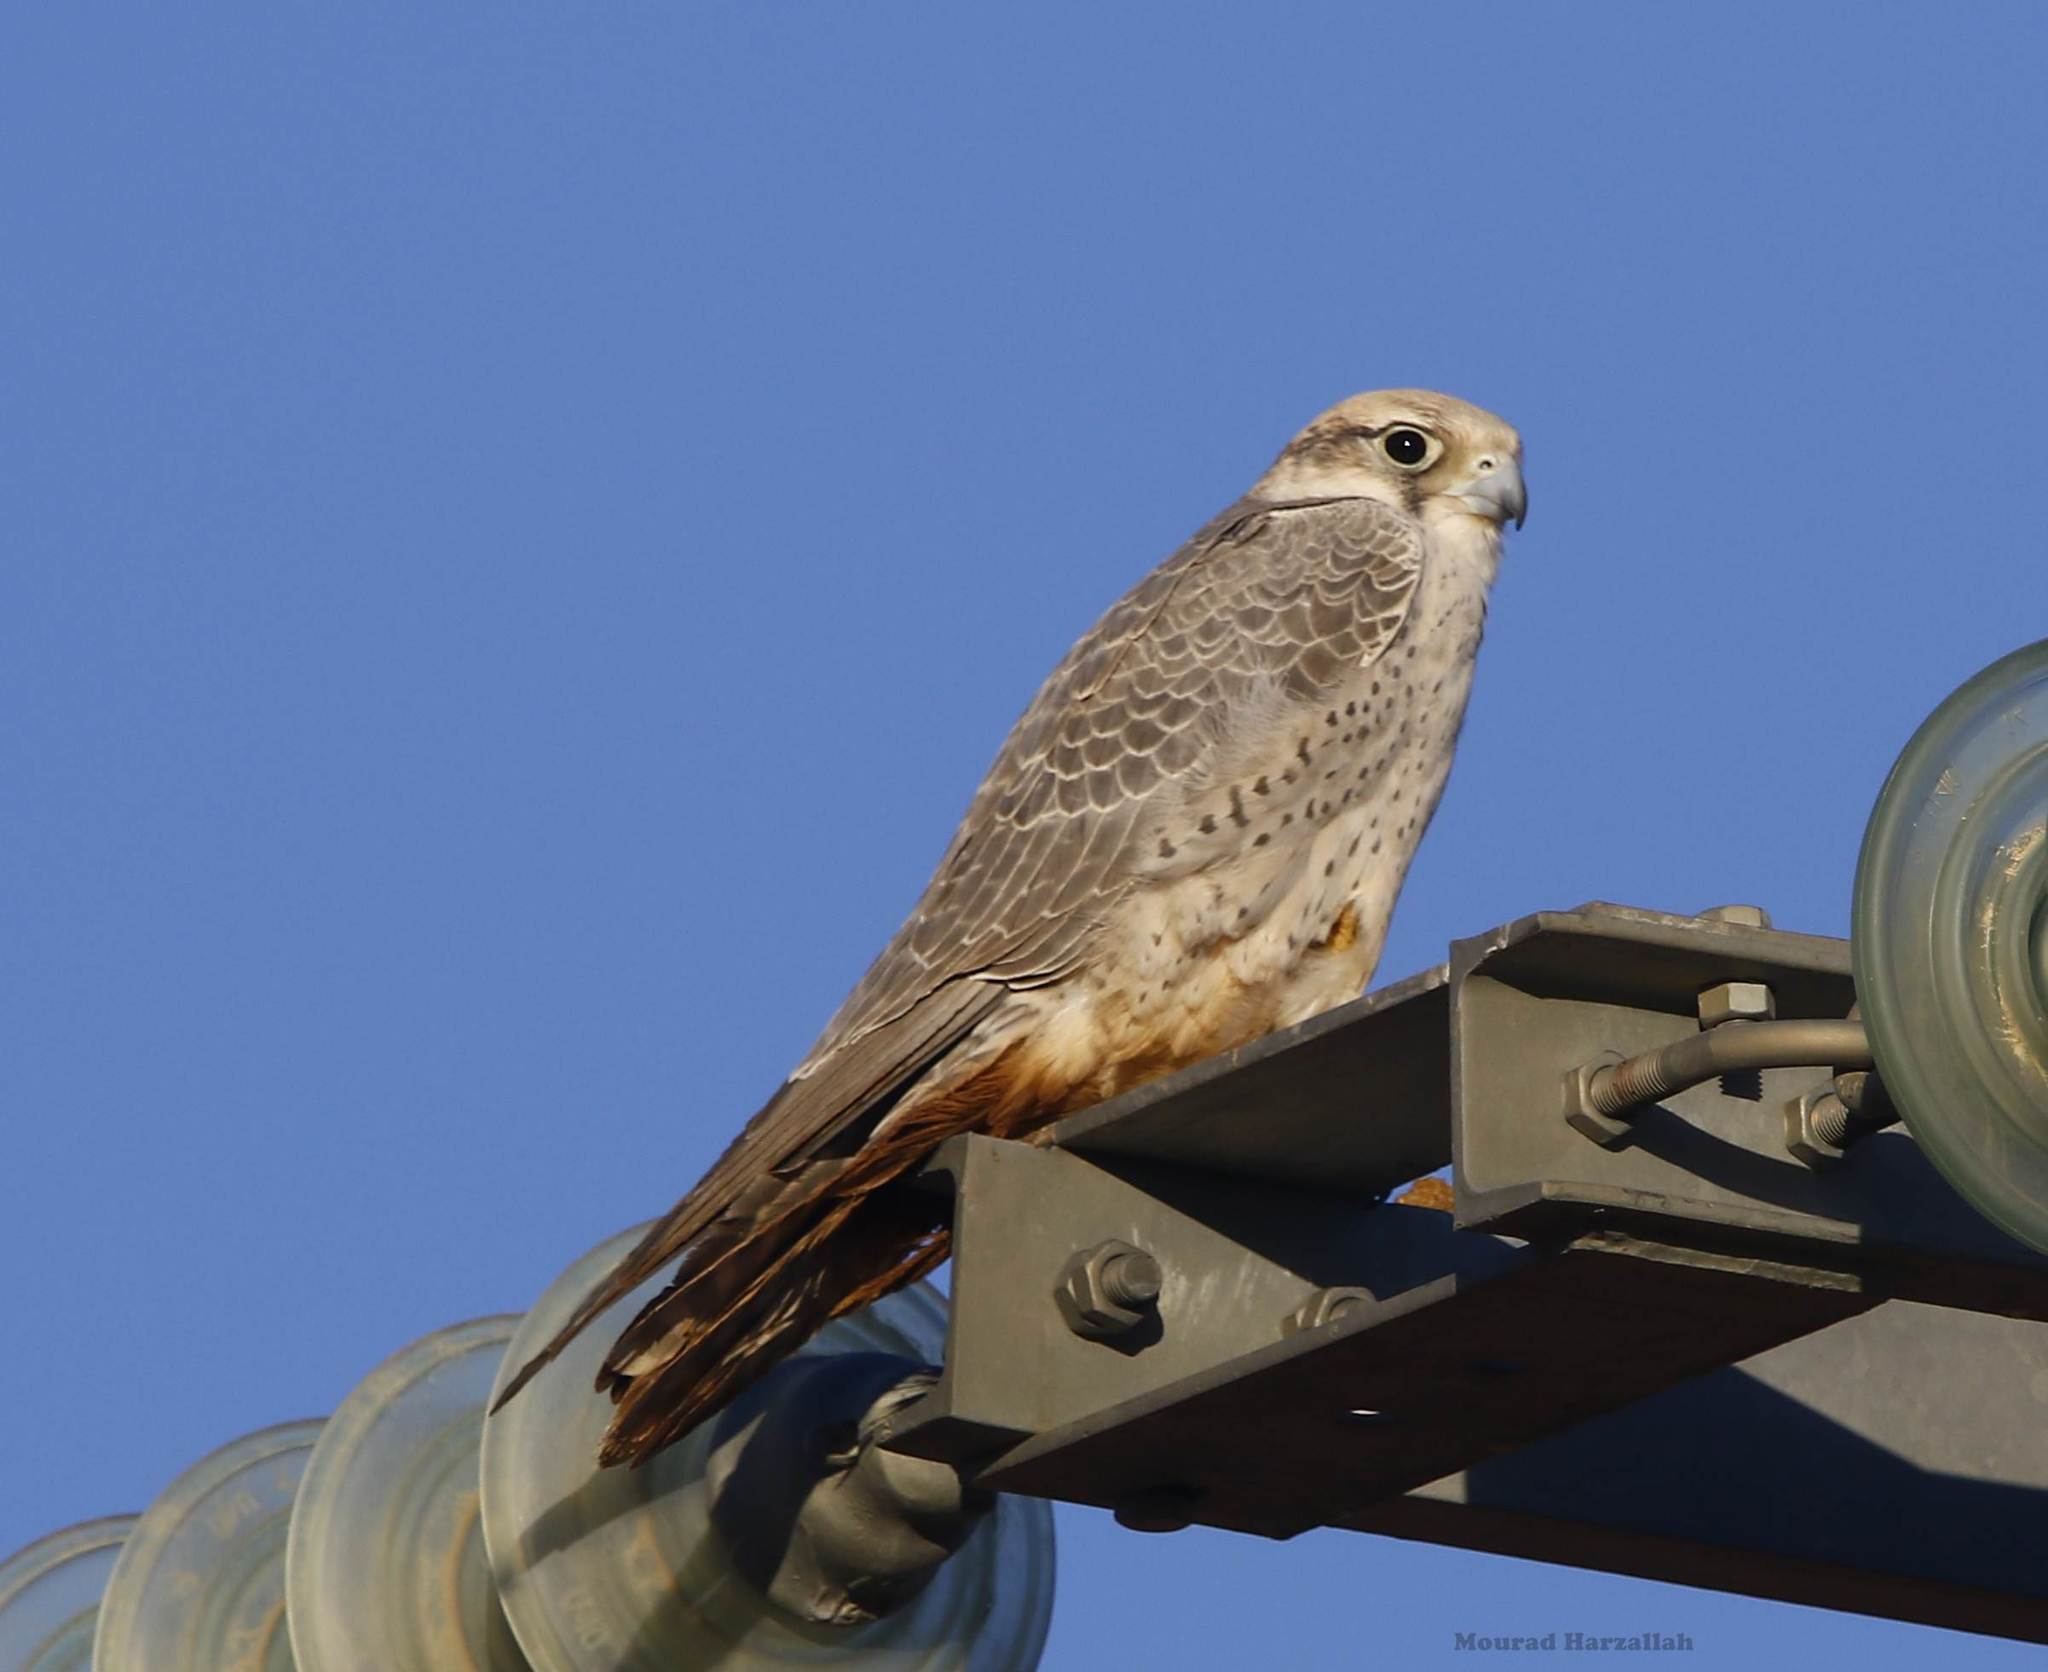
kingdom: Animalia
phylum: Chordata
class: Aves
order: Falconiformes
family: Falconidae
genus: Falco
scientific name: Falco biarmicus
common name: Lanner falcon
